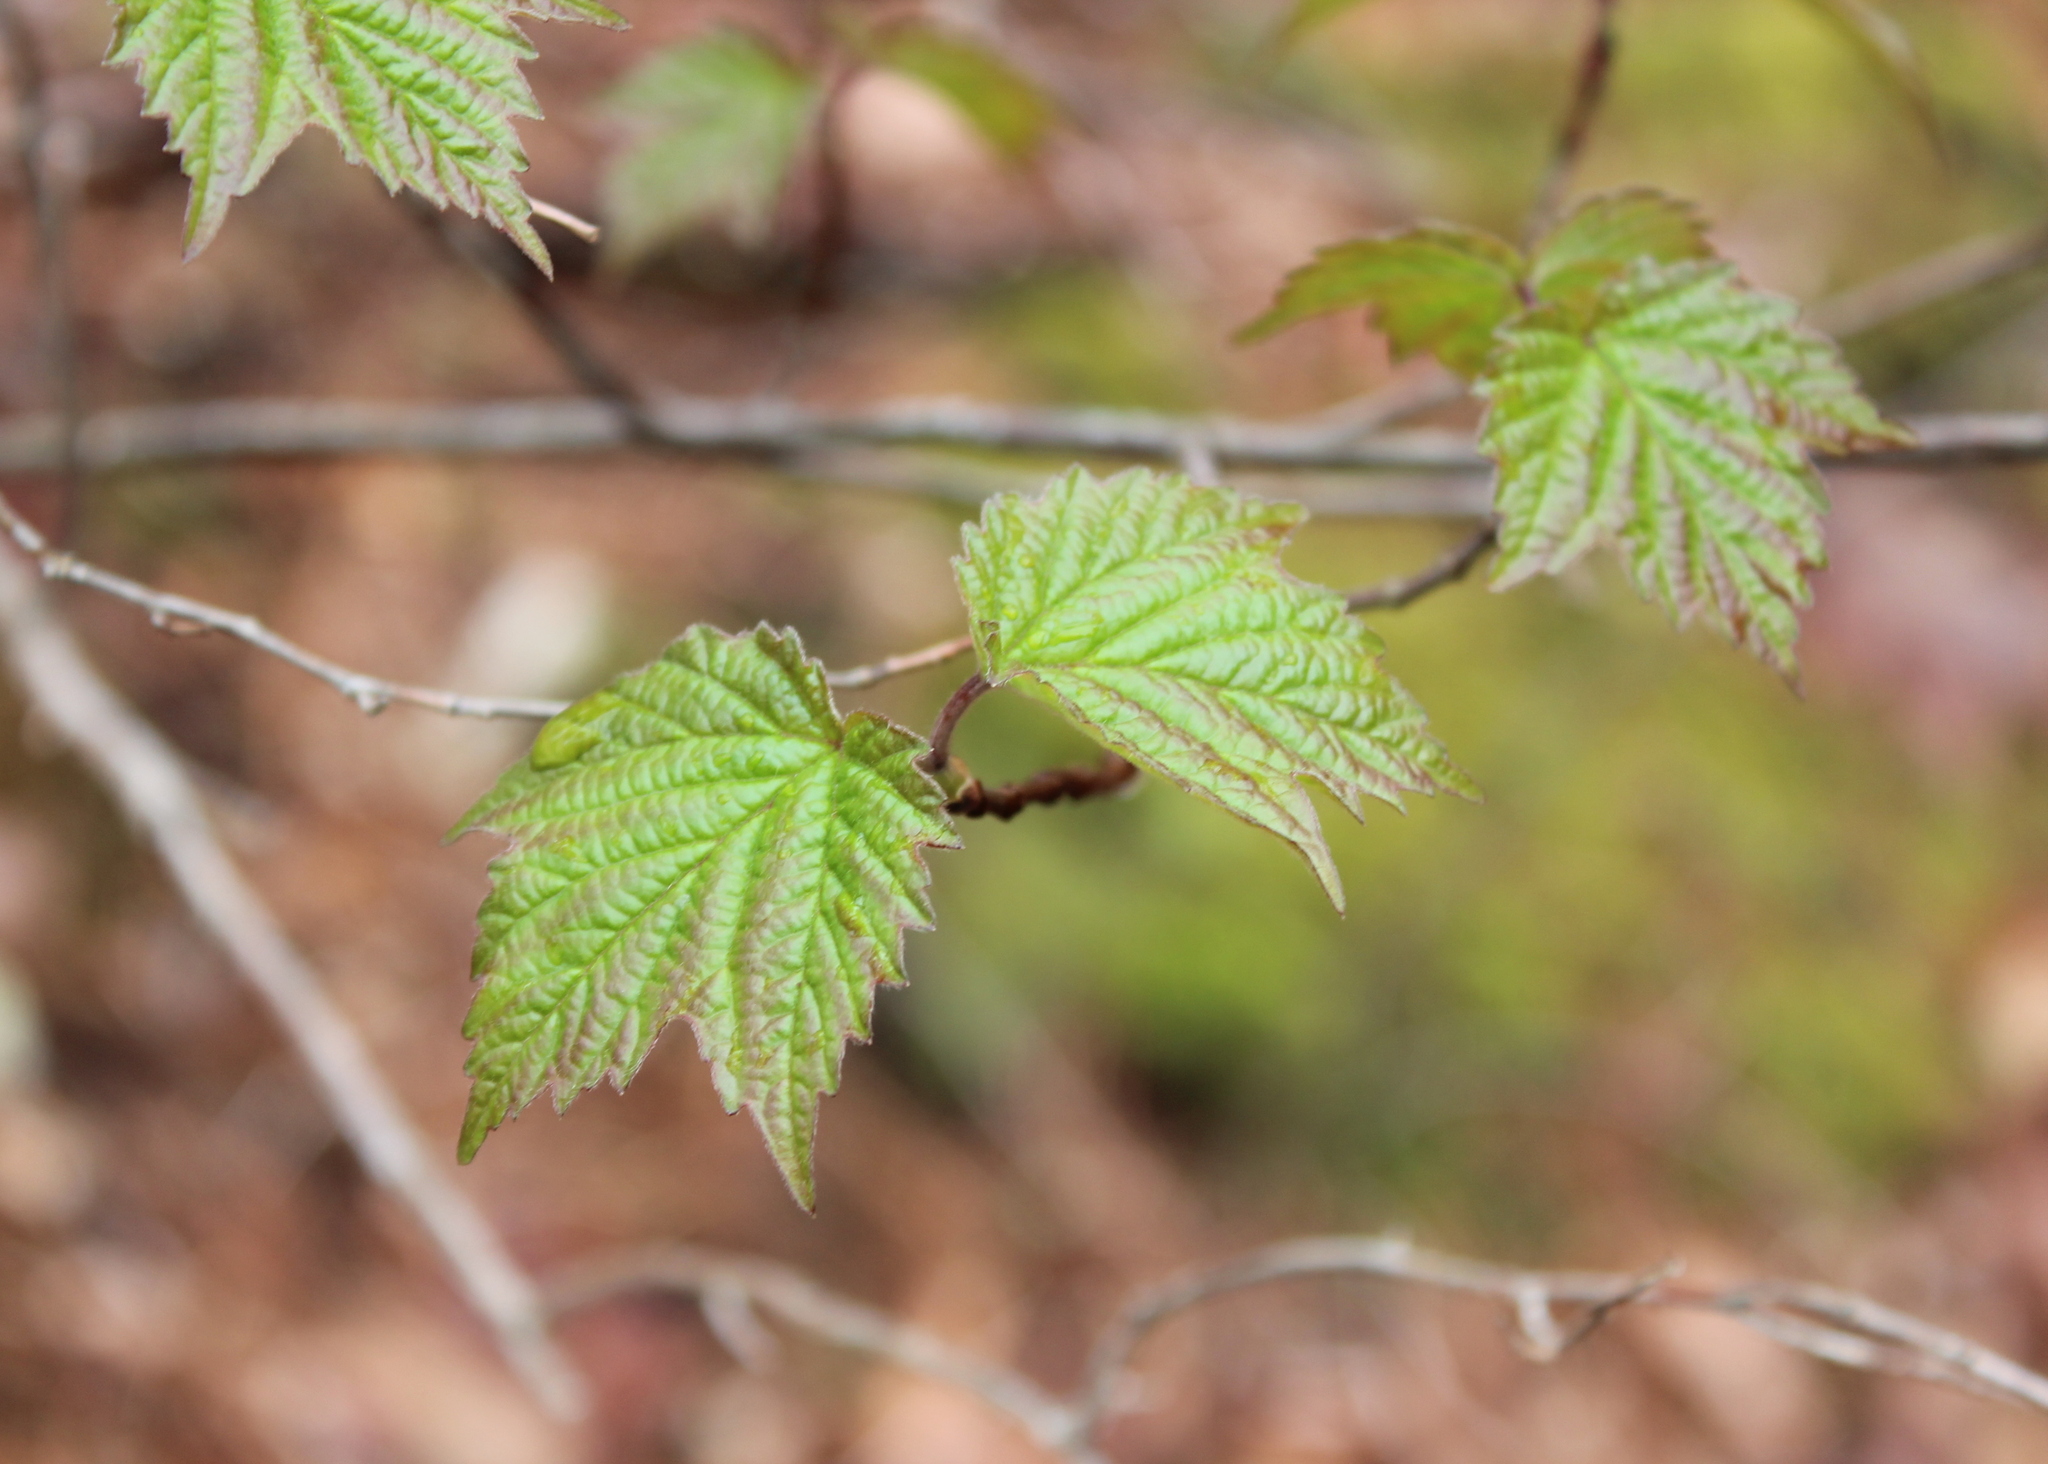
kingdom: Plantae
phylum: Tracheophyta
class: Magnoliopsida
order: Dipsacales
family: Viburnaceae
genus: Viburnum
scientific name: Viburnum acerifolium
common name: Dockmackie
